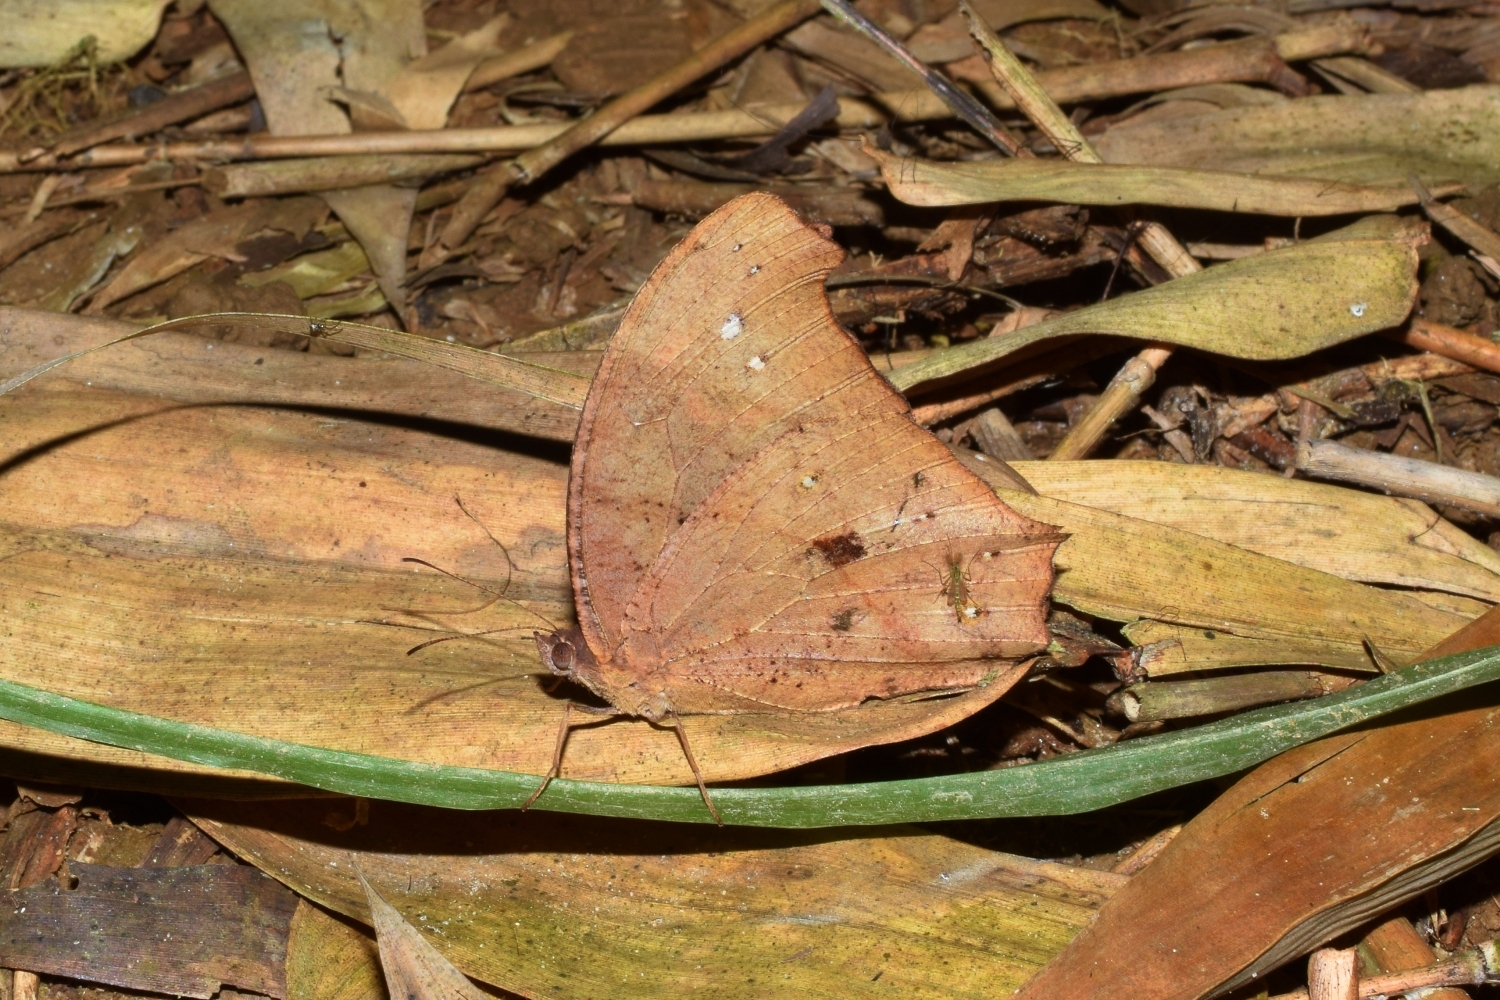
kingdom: Animalia
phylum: Arthropoda
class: Insecta
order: Lepidoptera
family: Nymphalidae
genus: Melanitis
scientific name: Melanitis leda
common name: Twilight brown
